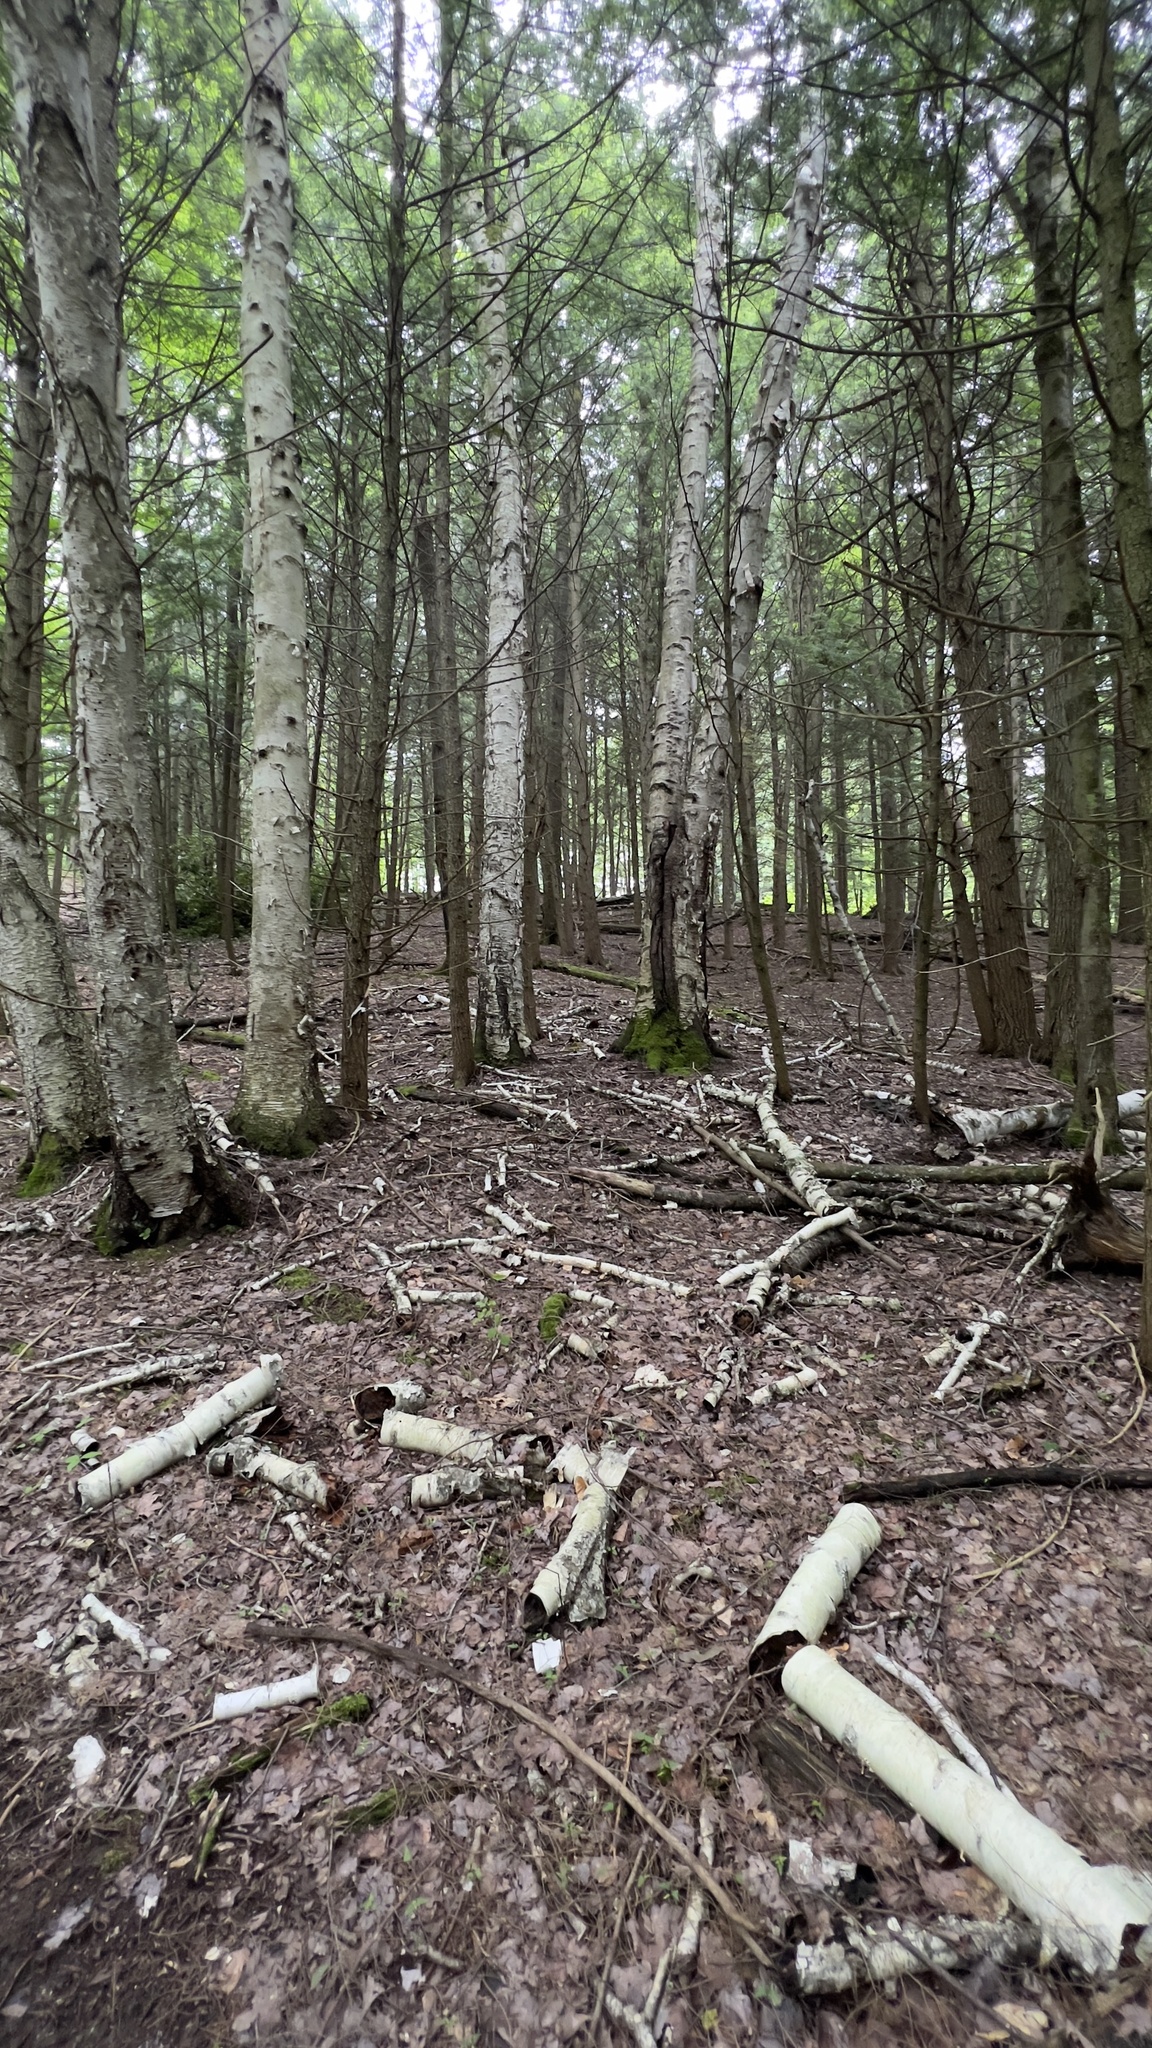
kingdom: Plantae
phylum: Tracheophyta
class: Magnoliopsida
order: Fagales
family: Betulaceae
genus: Betula
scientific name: Betula papyrifera
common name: Paper birch
